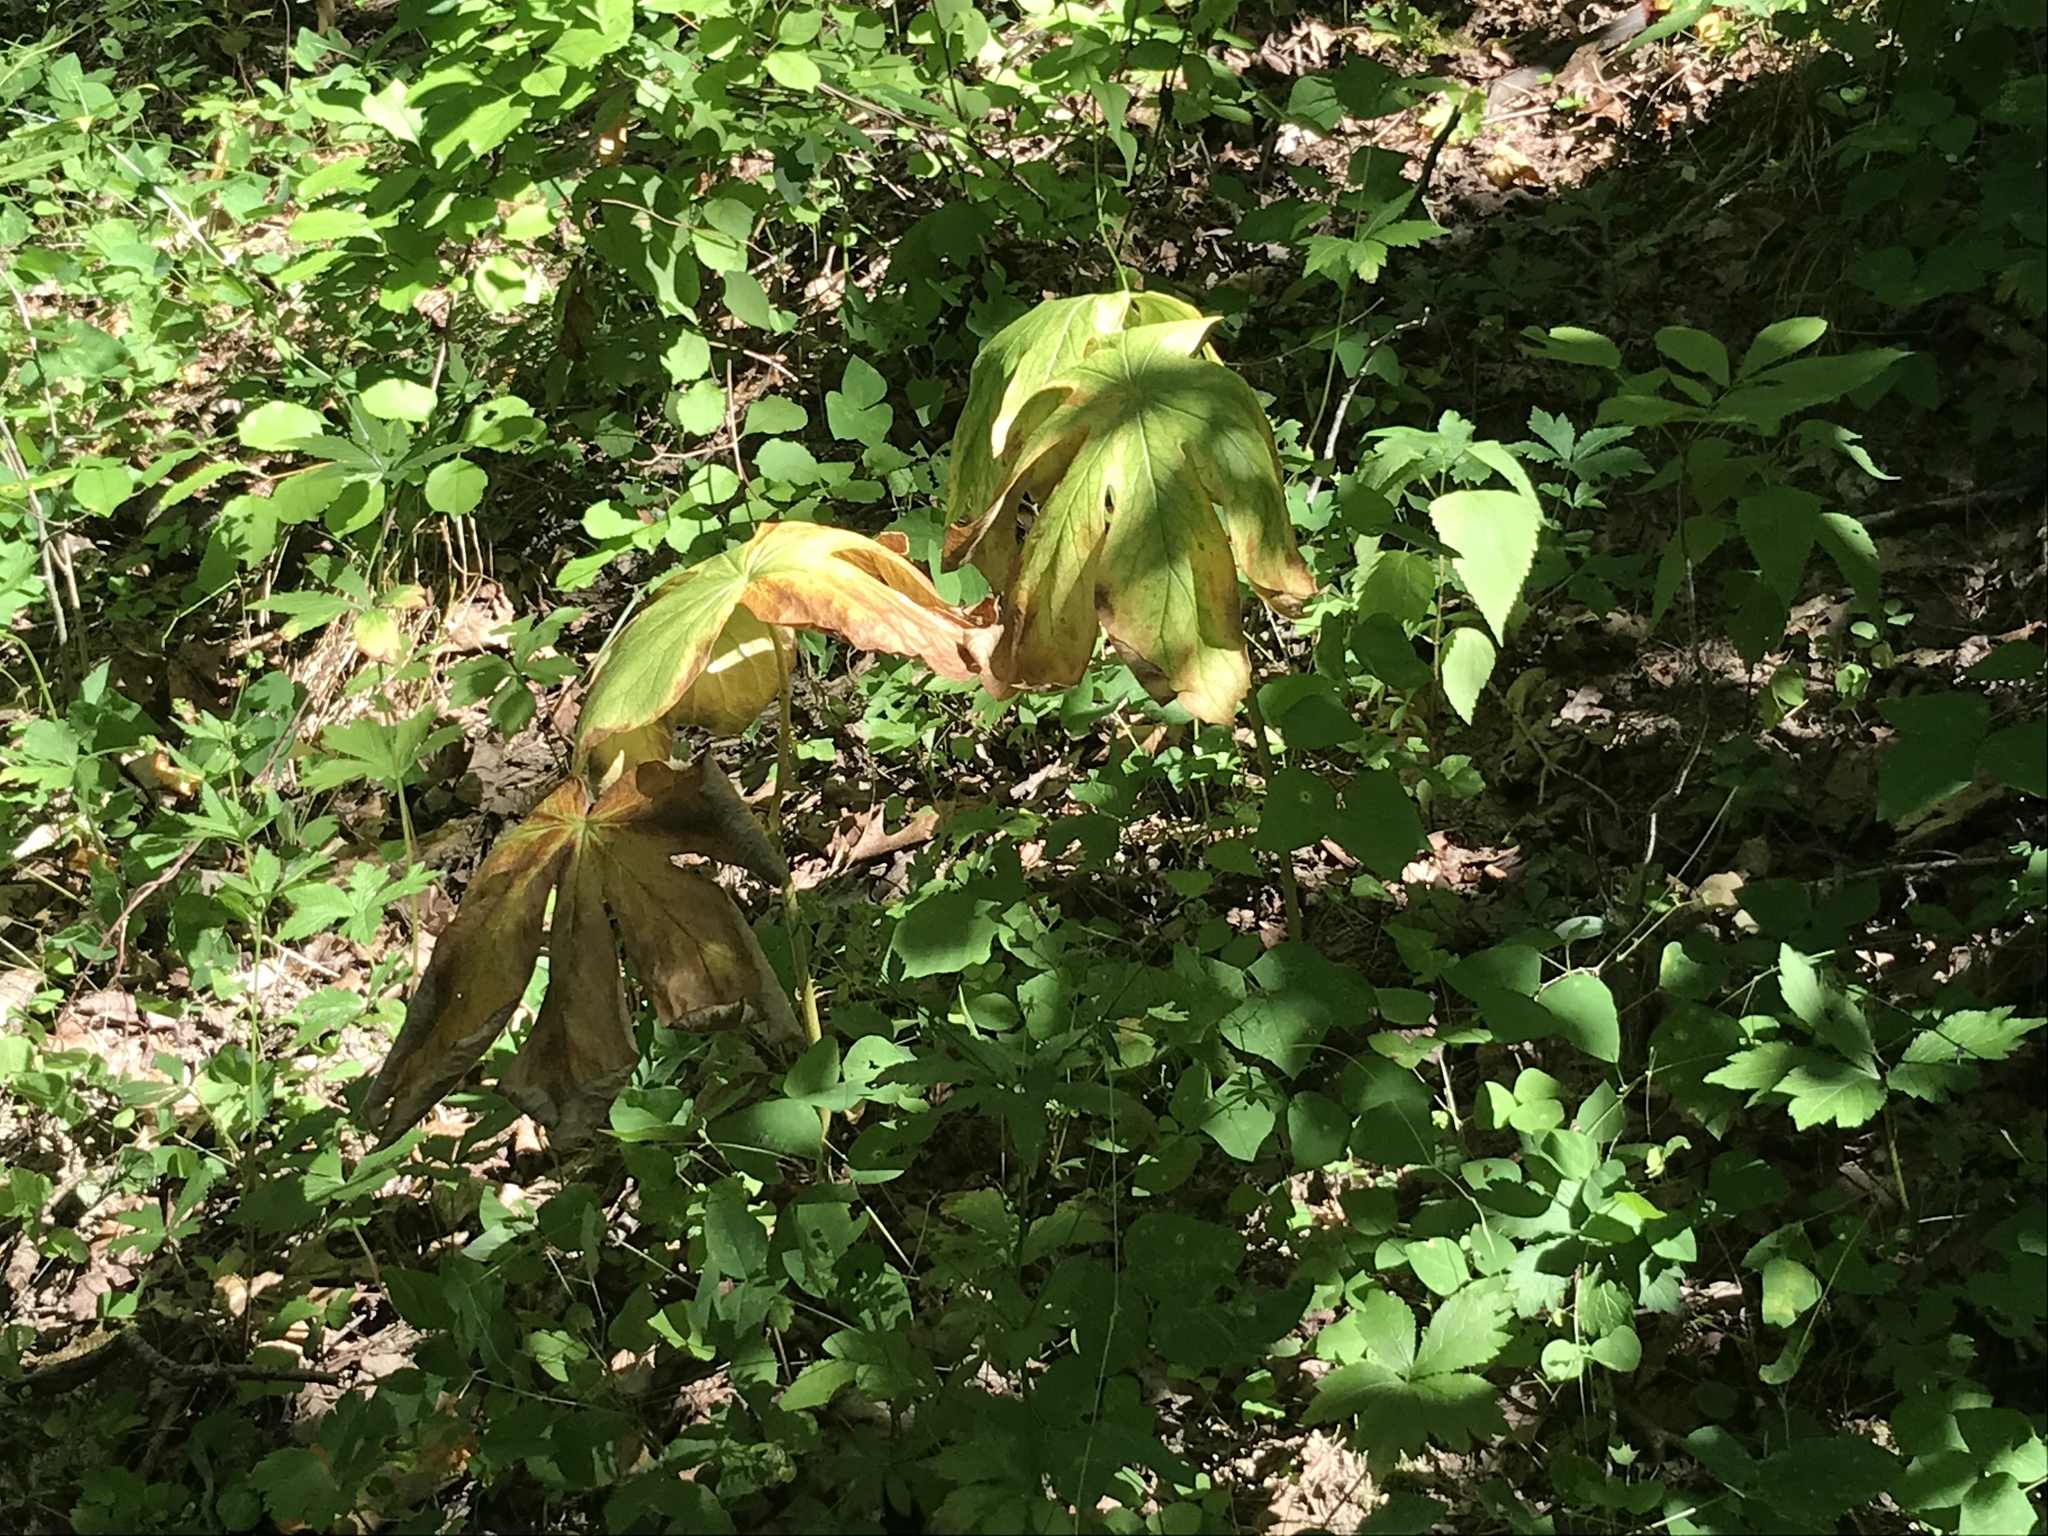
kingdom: Plantae
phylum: Tracheophyta
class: Magnoliopsida
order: Ranunculales
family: Berberidaceae
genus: Podophyllum
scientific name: Podophyllum peltatum
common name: Wild mandrake
